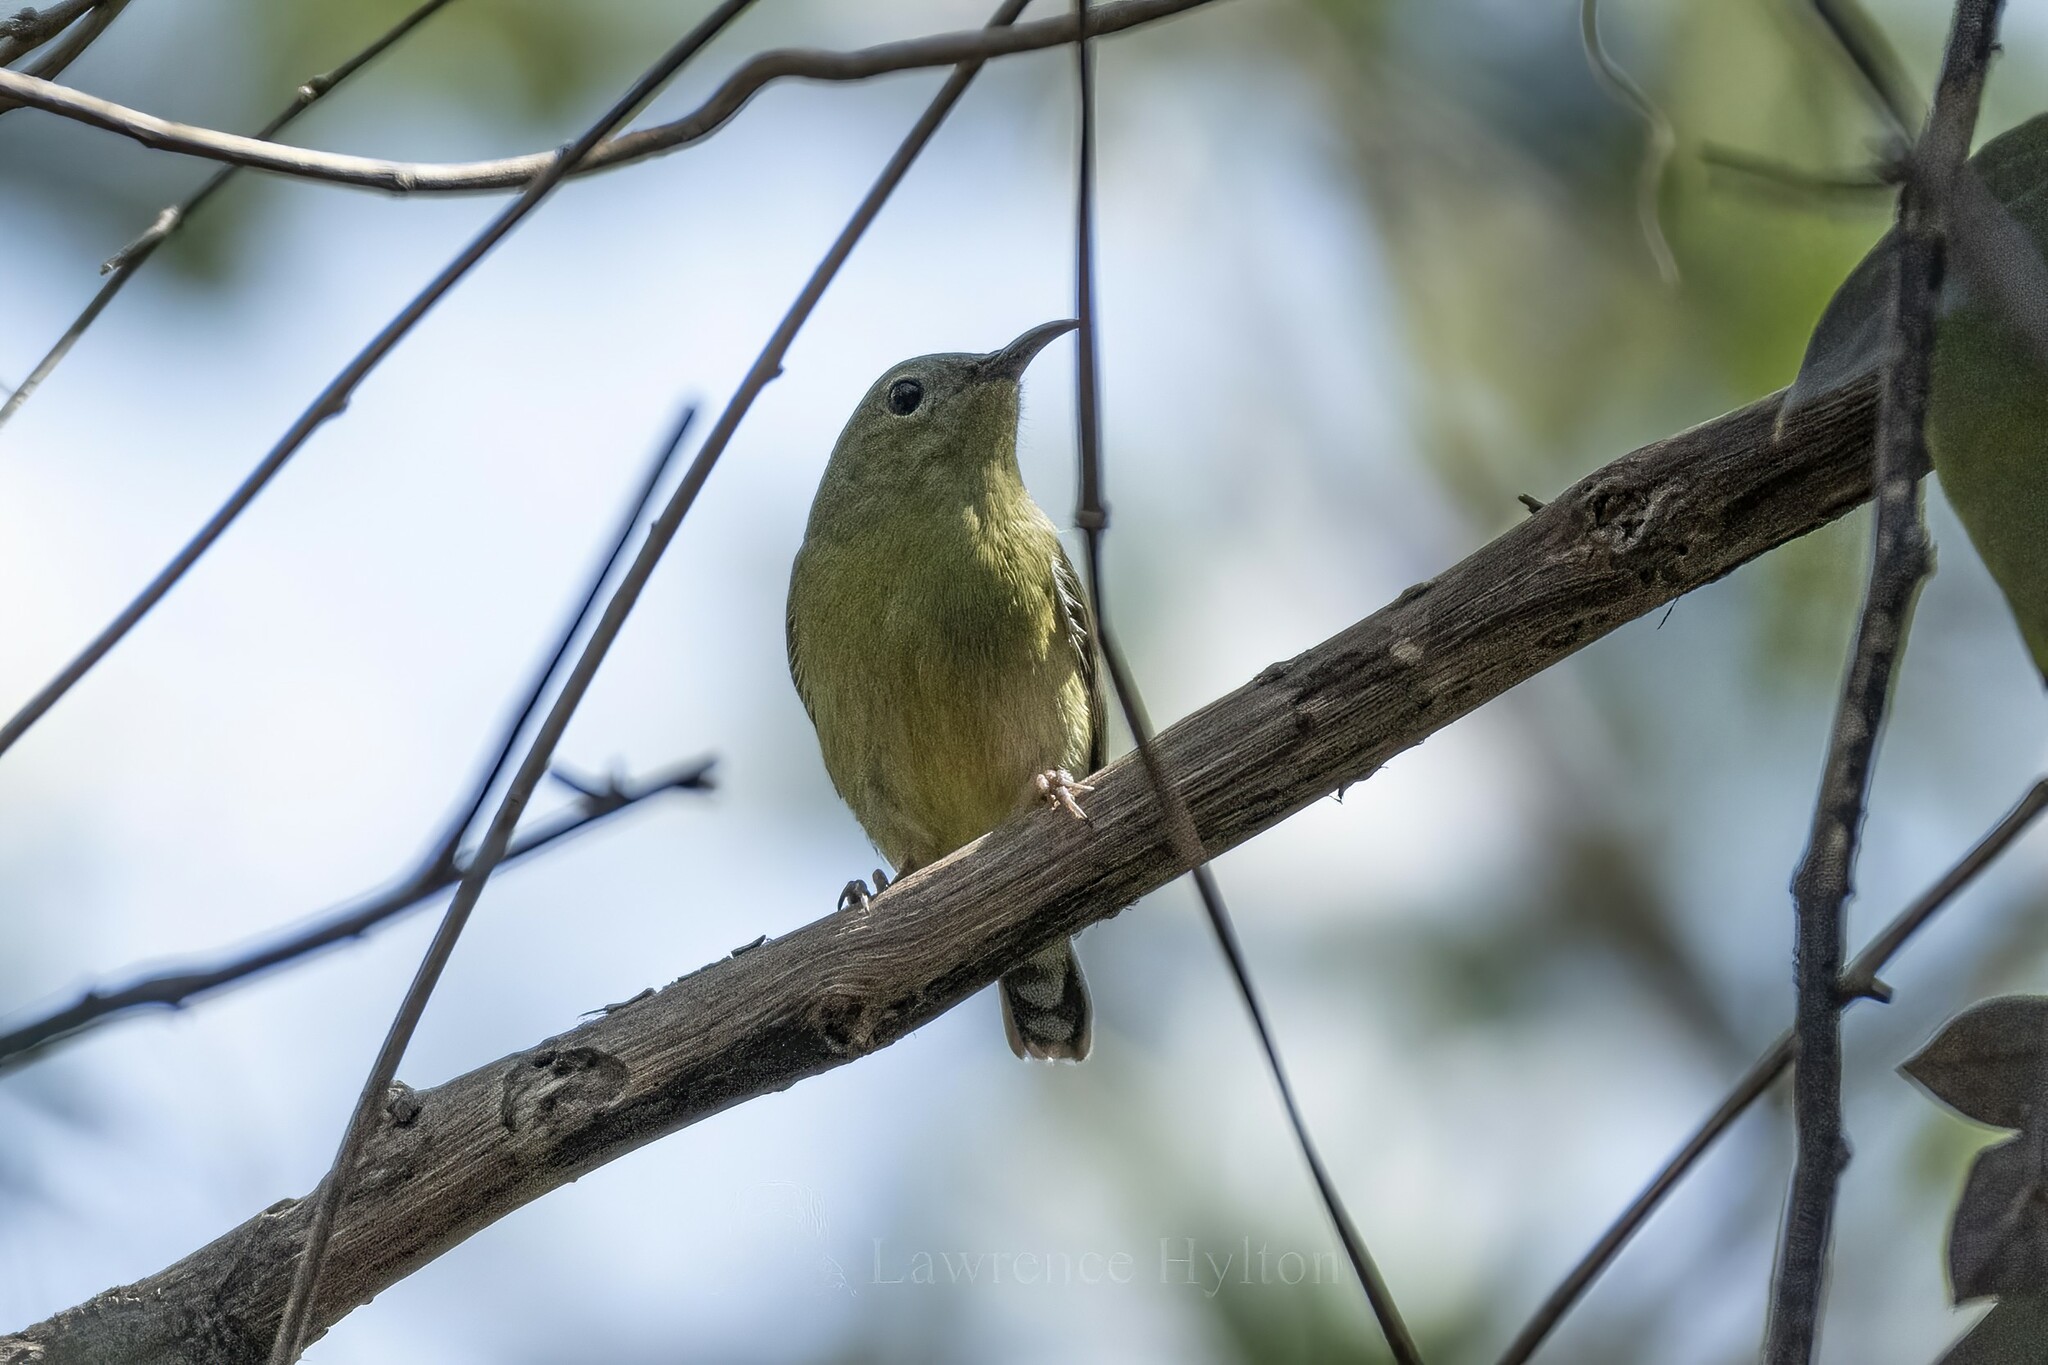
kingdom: Animalia
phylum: Chordata
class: Aves
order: Passeriformes
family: Nectariniidae
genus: Aethopyga
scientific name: Aethopyga christinae
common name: Fork-tailed sunbird
